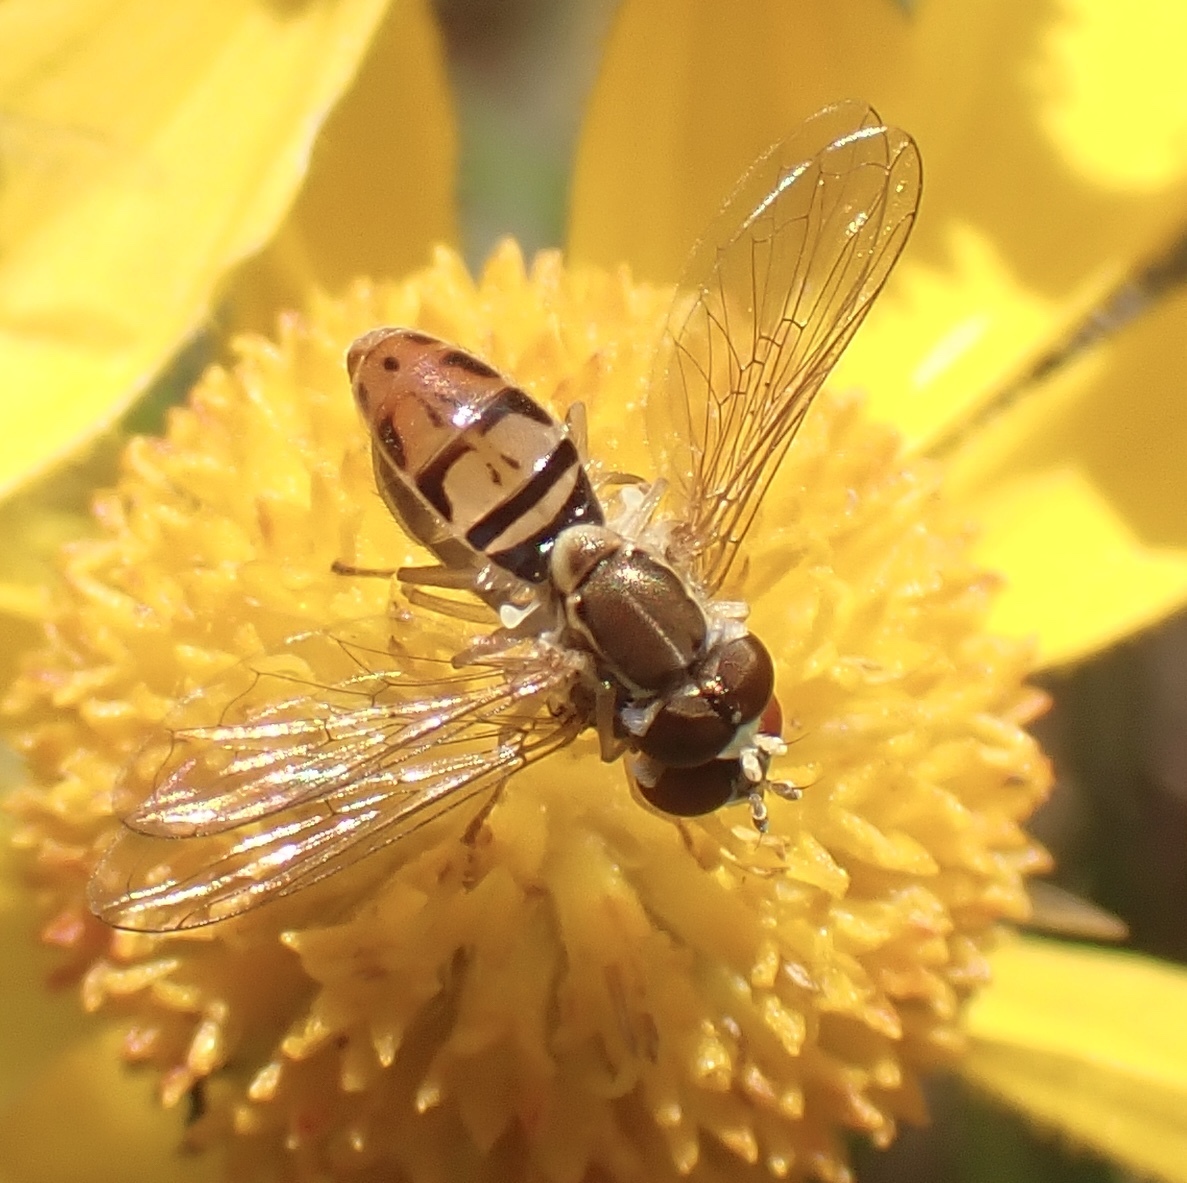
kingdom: Animalia
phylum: Arthropoda
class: Insecta
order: Diptera
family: Syrphidae
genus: Toxomerus
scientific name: Toxomerus marginatus
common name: Syrphid fly
